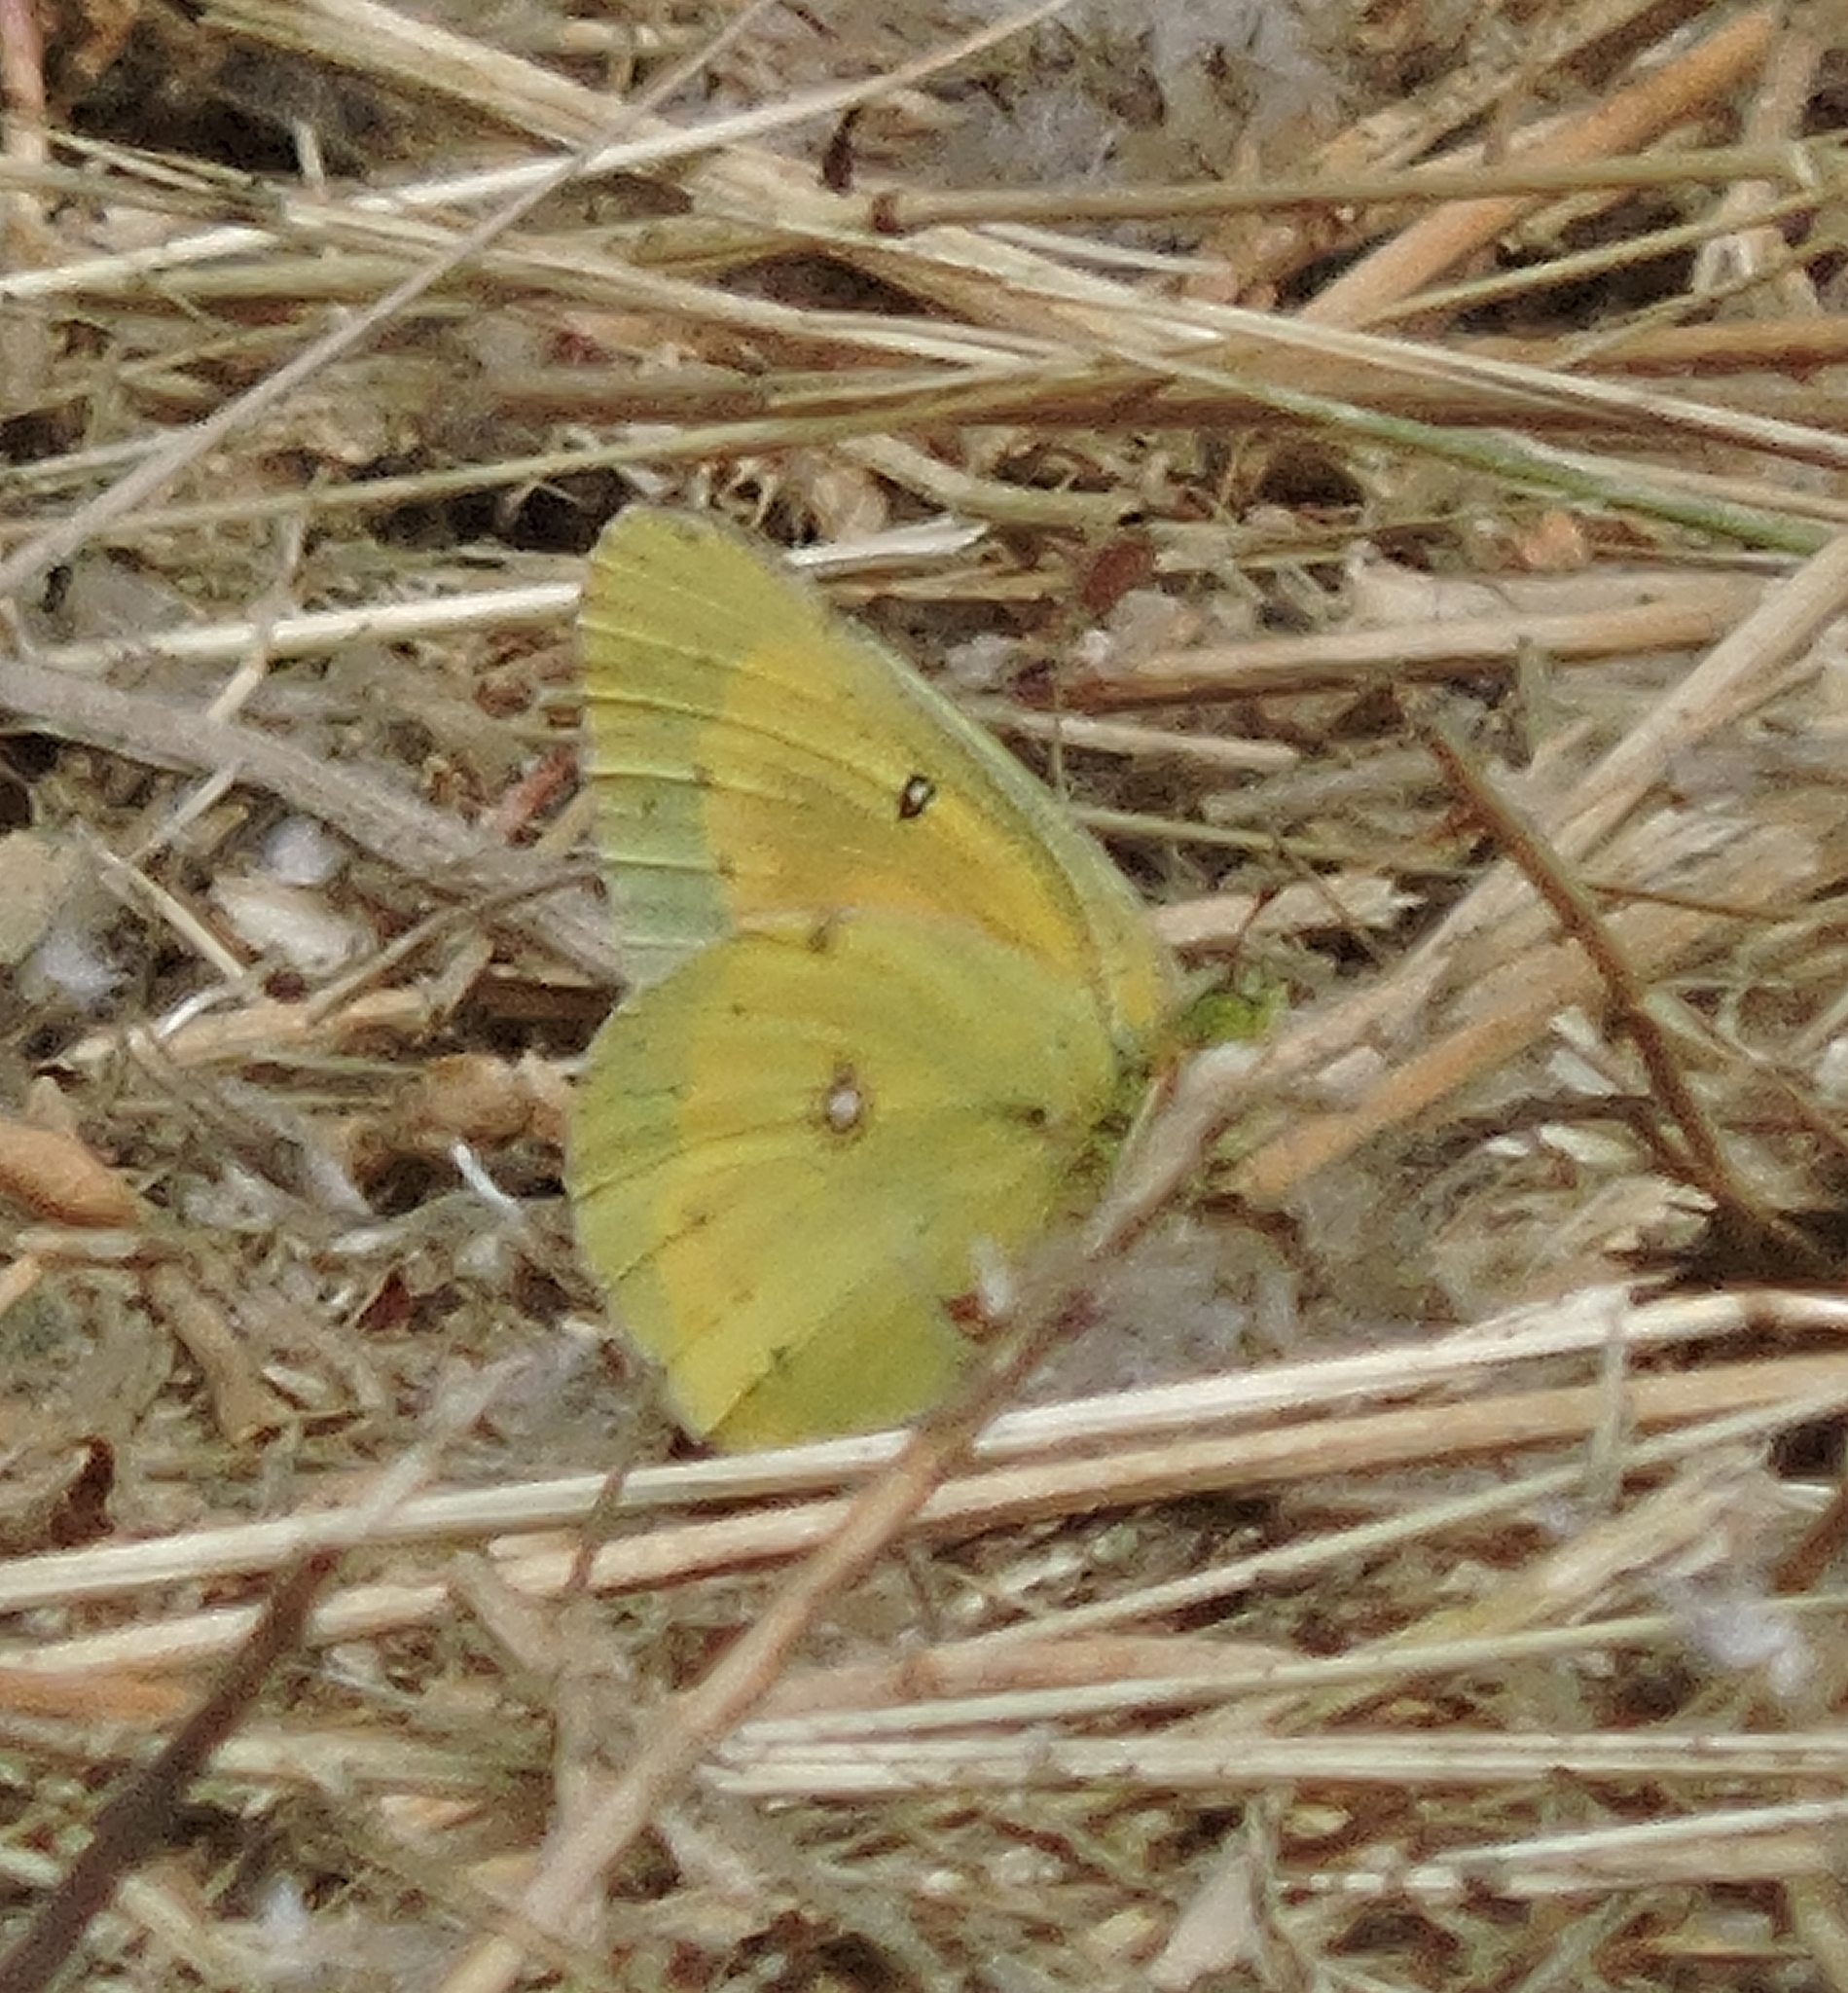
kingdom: Animalia
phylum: Arthropoda
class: Insecta
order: Lepidoptera
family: Pieridae
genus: Colias
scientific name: Colias eurytheme
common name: Alfalfa butterfly
